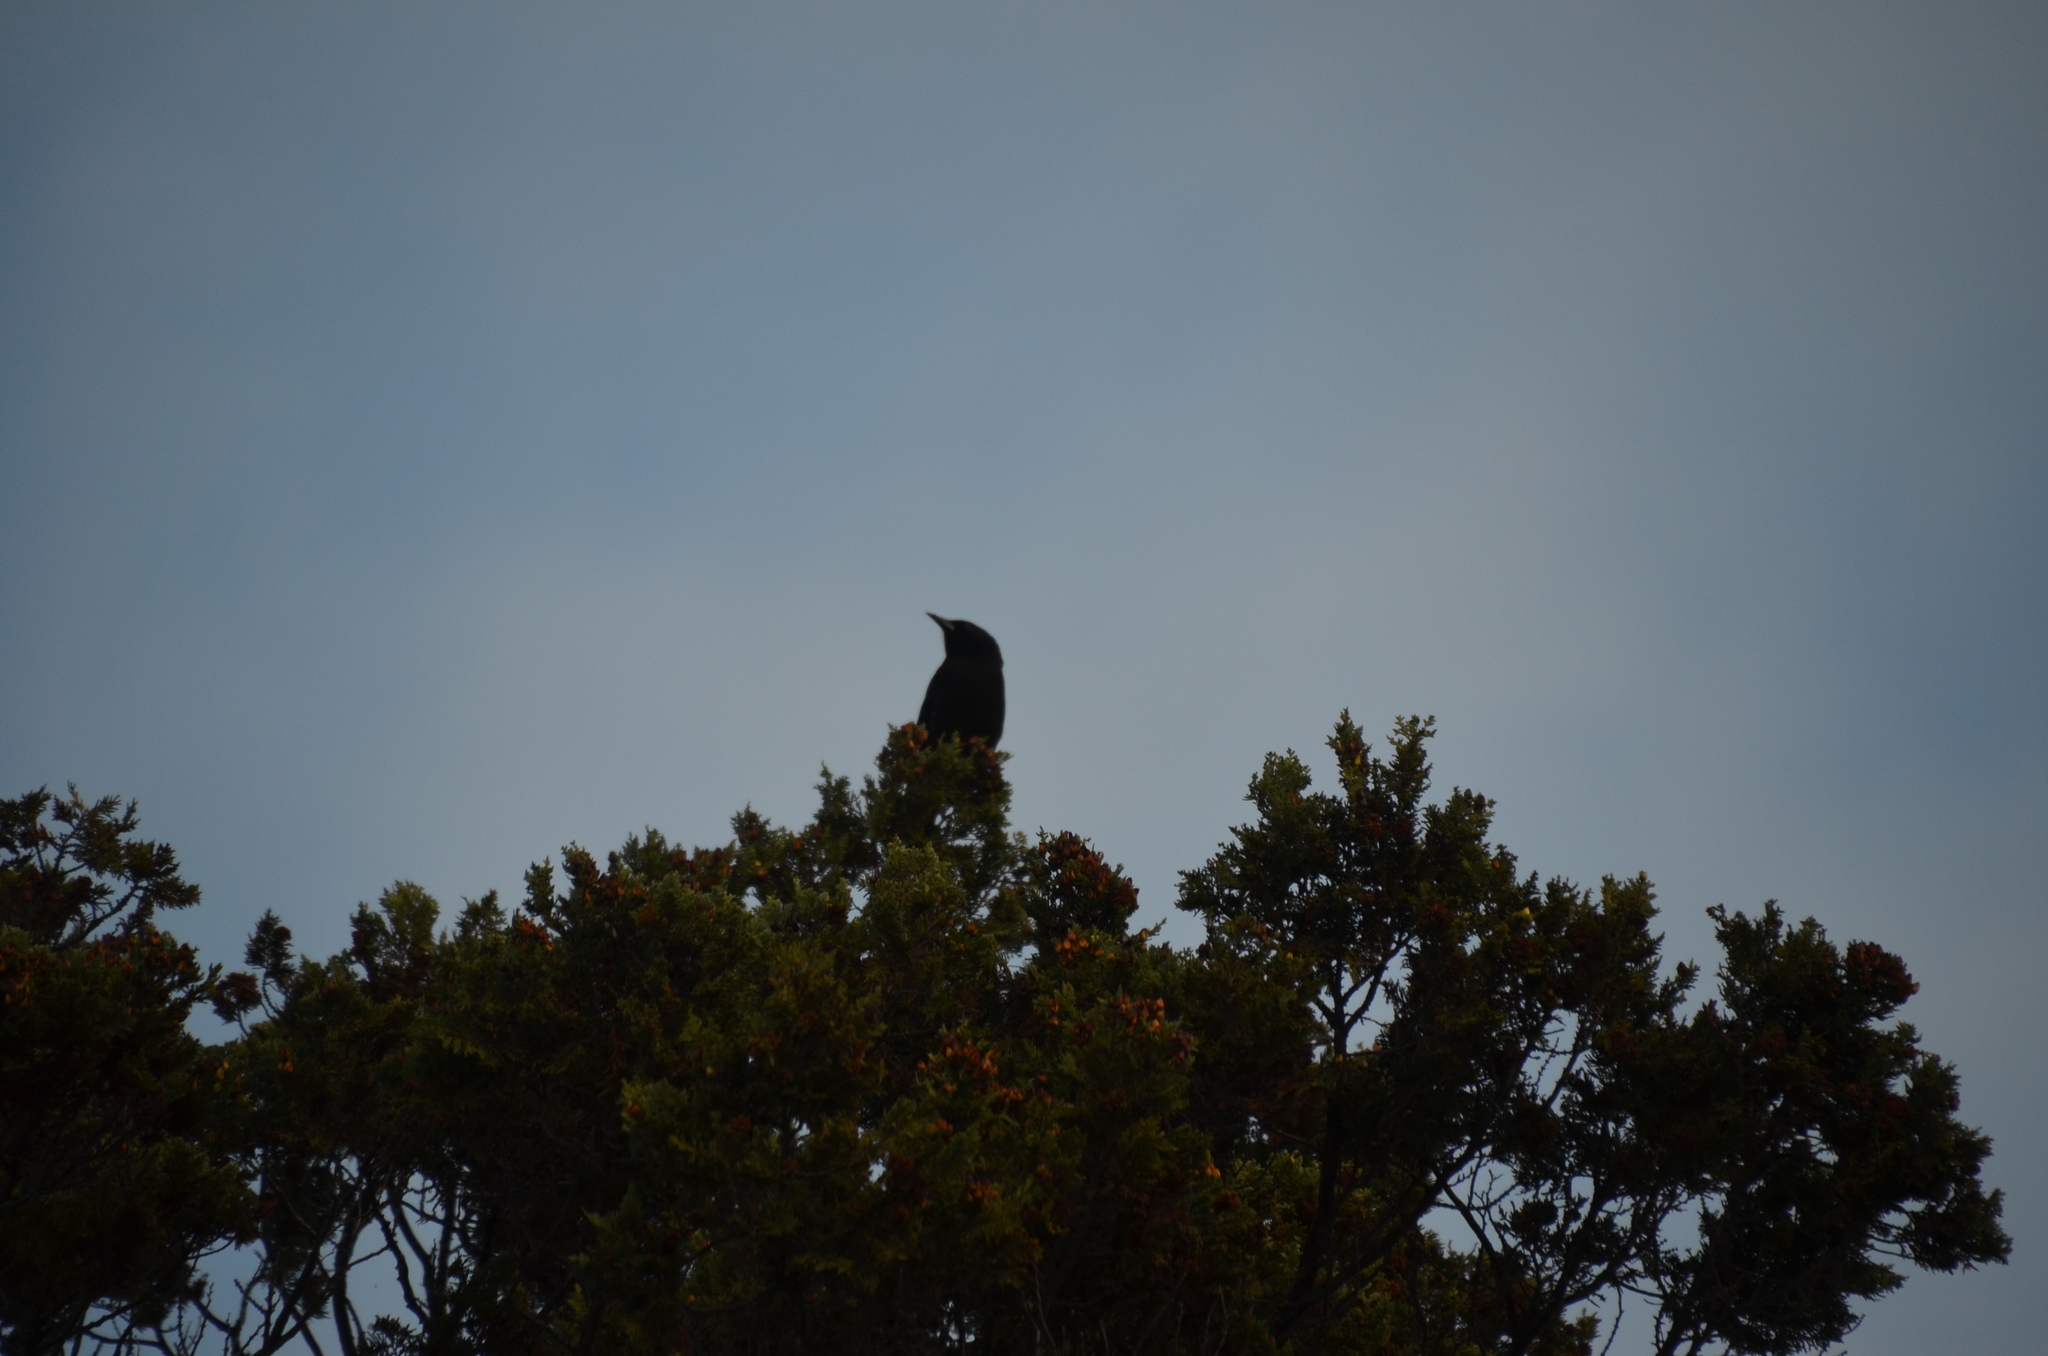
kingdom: Animalia
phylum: Chordata
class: Aves
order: Passeriformes
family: Icteridae
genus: Curaeus
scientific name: Curaeus curaeus
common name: Austral blackbird
